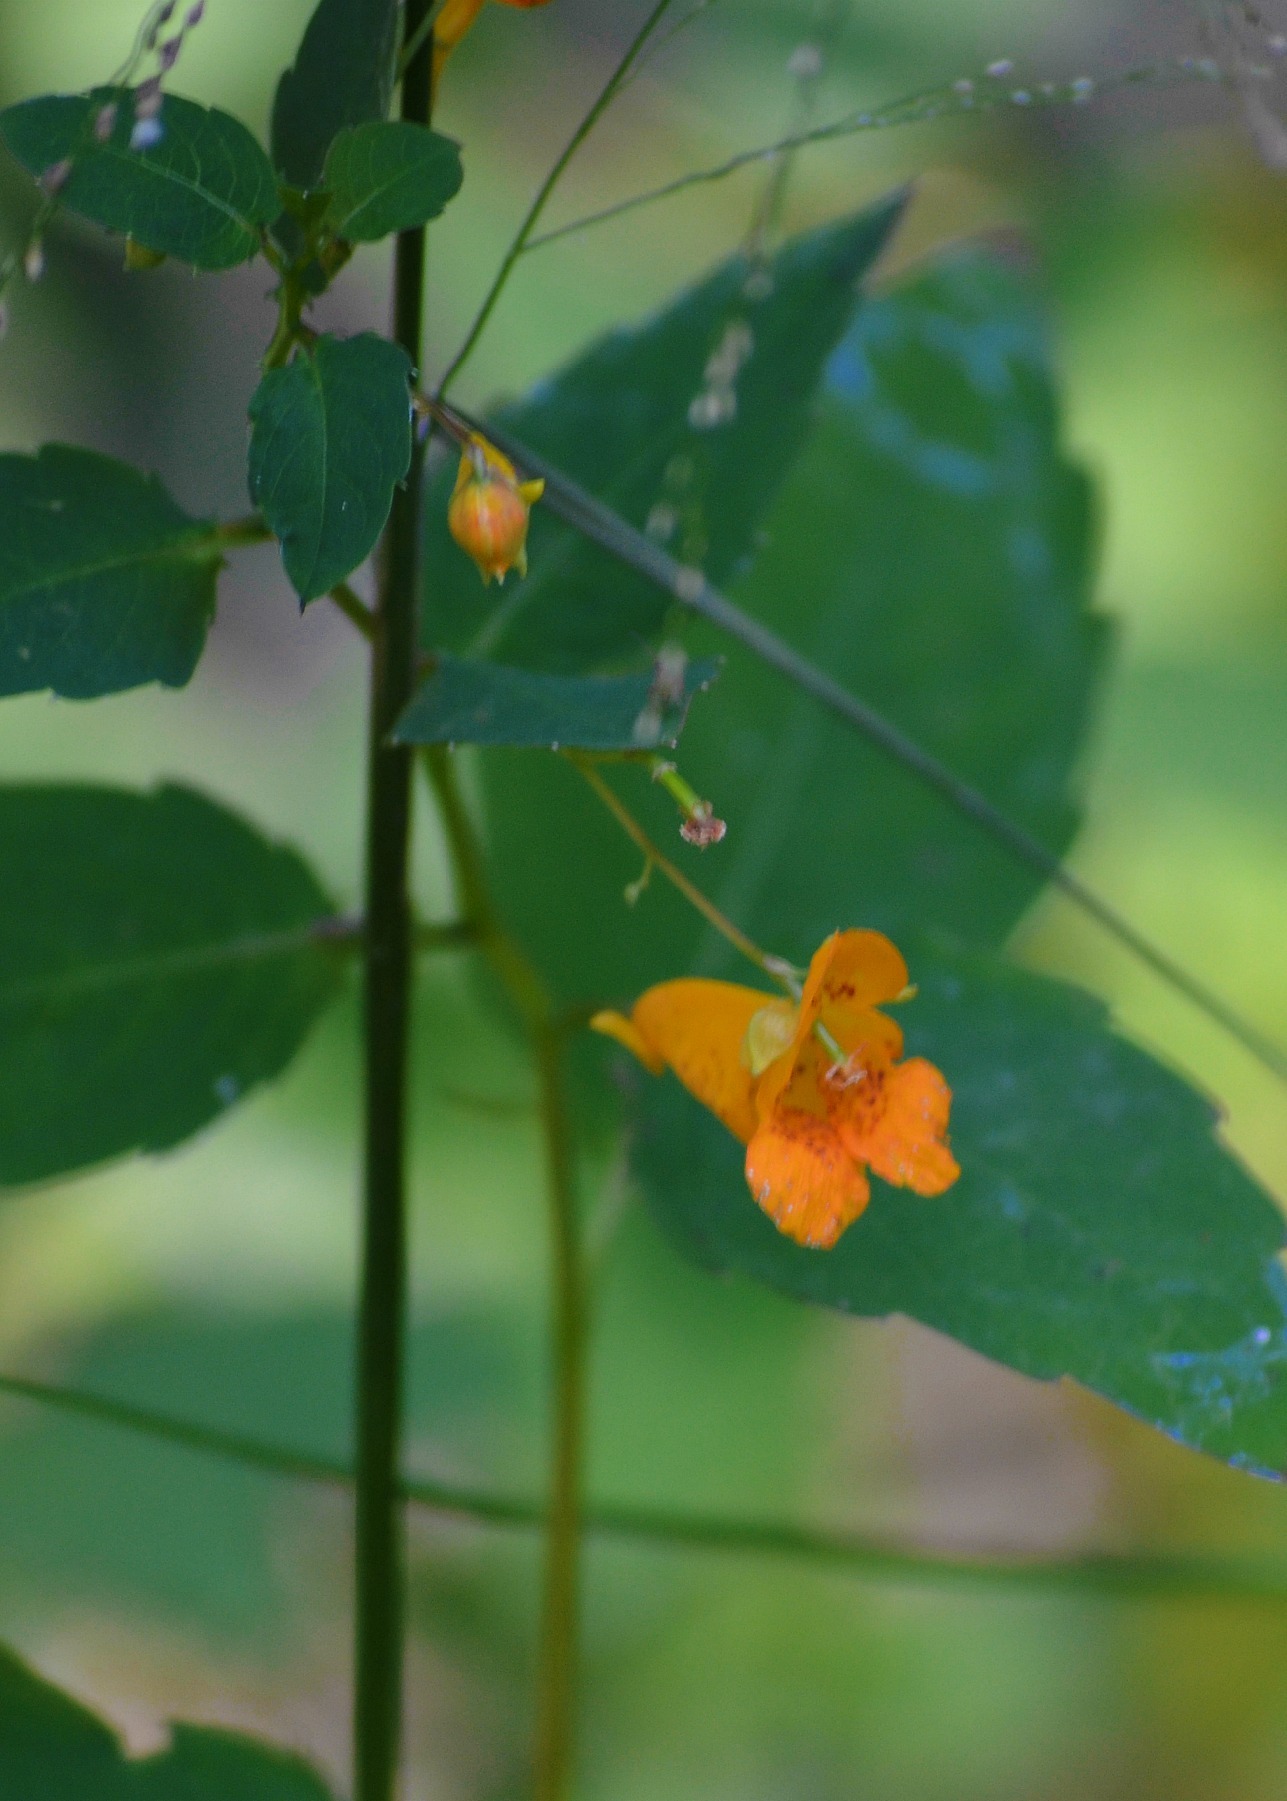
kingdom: Plantae
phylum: Tracheophyta
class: Magnoliopsida
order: Ericales
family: Balsaminaceae
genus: Impatiens
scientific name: Impatiens capensis
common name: Orange balsam
